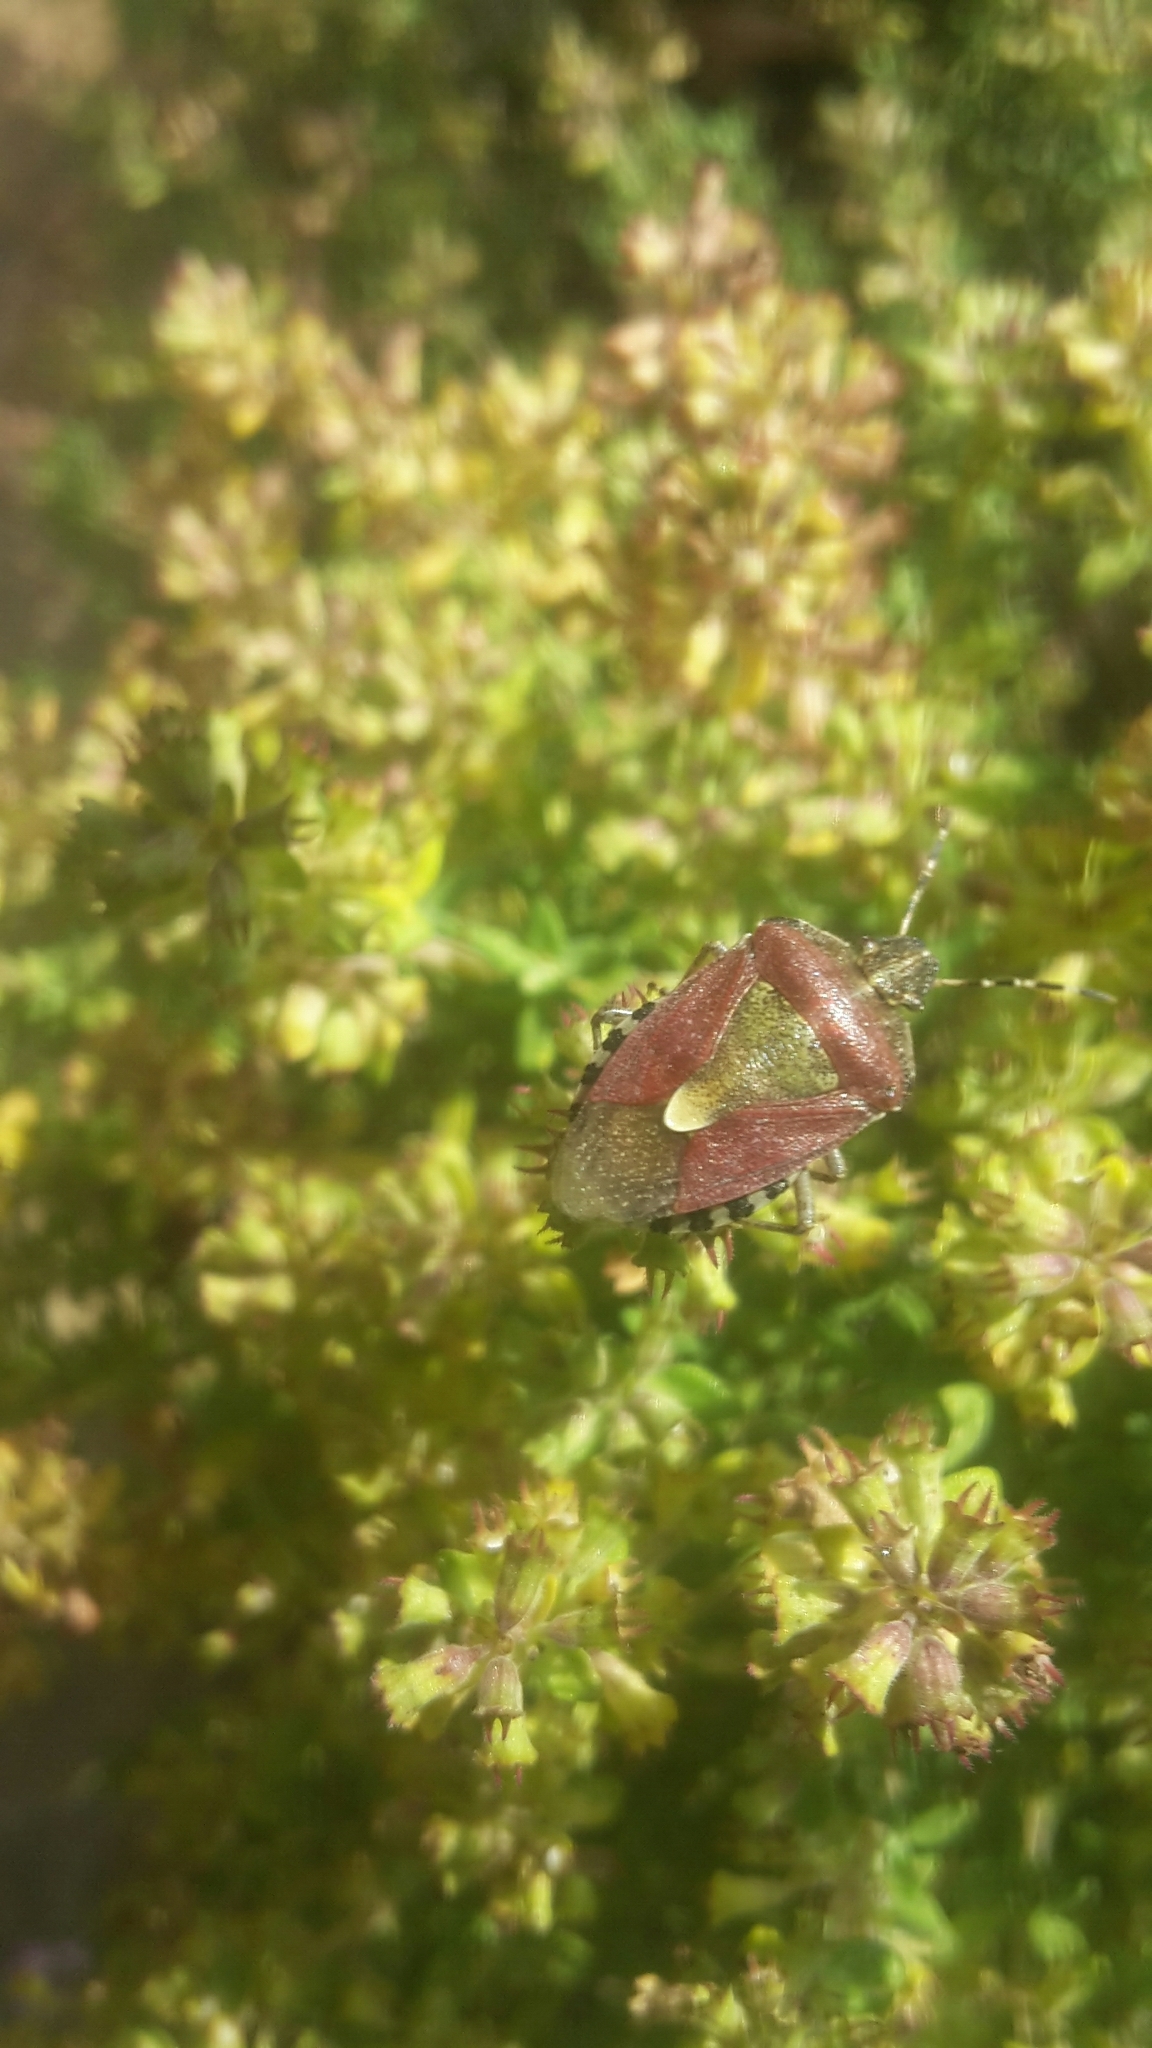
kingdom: Animalia
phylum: Arthropoda
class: Insecta
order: Hemiptera
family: Pentatomidae
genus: Dolycoris
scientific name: Dolycoris baccarum
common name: Sloe bug
